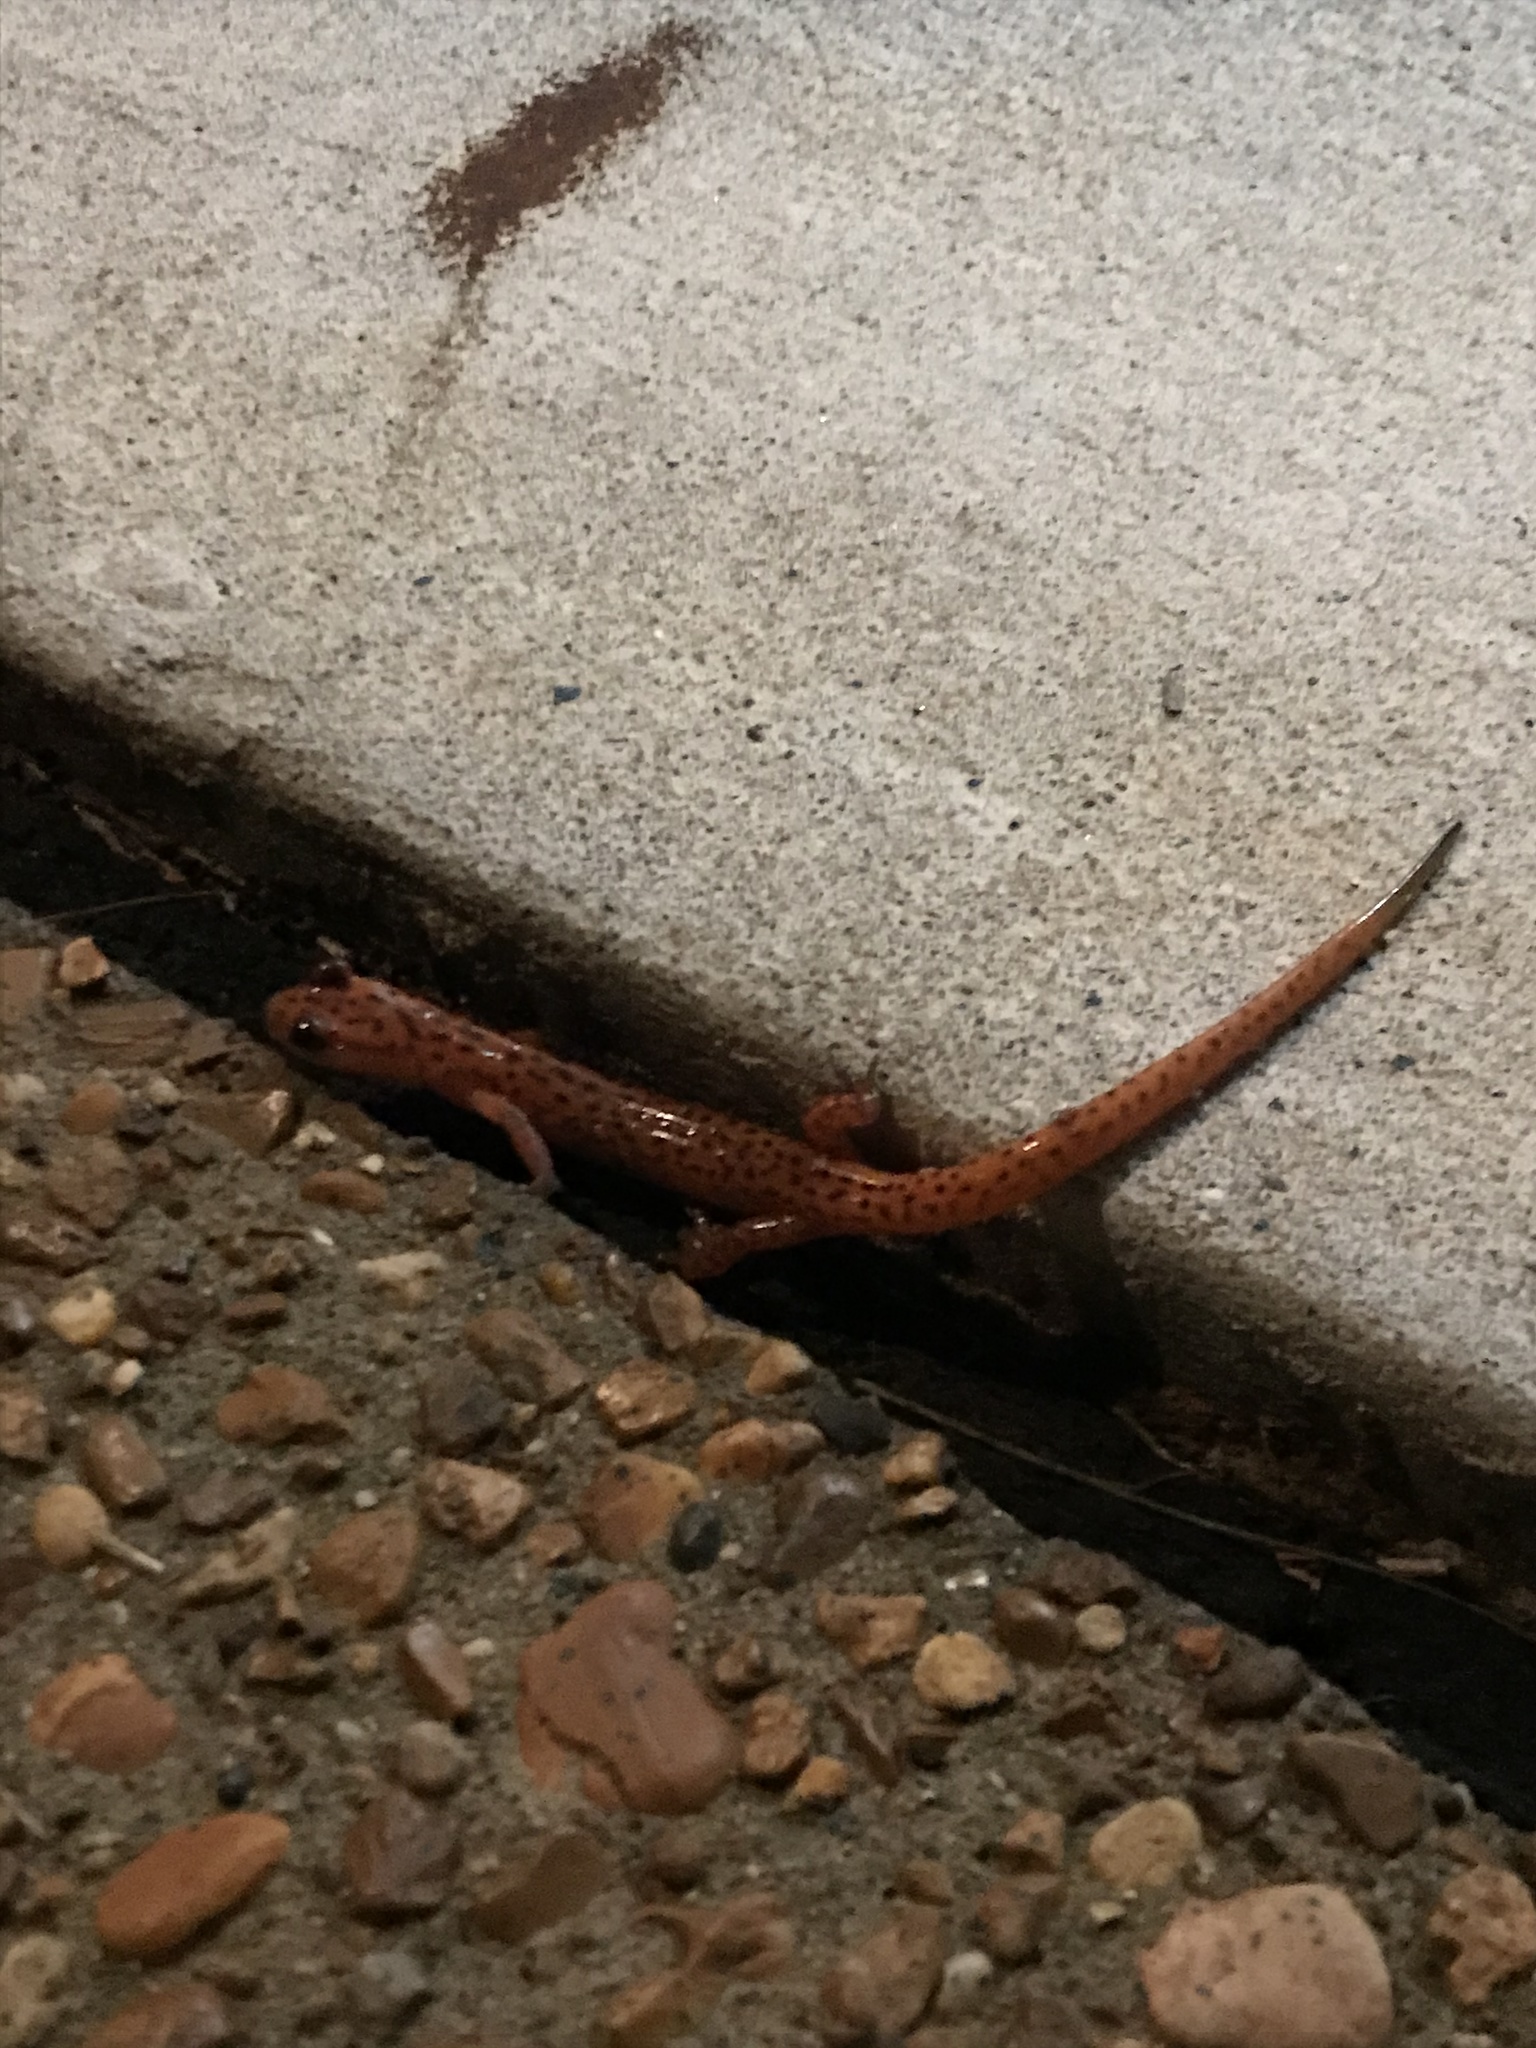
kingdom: Animalia
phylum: Chordata
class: Amphibia
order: Caudata
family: Plethodontidae
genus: Eurycea
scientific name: Eurycea lucifuga
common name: Cave salamander
